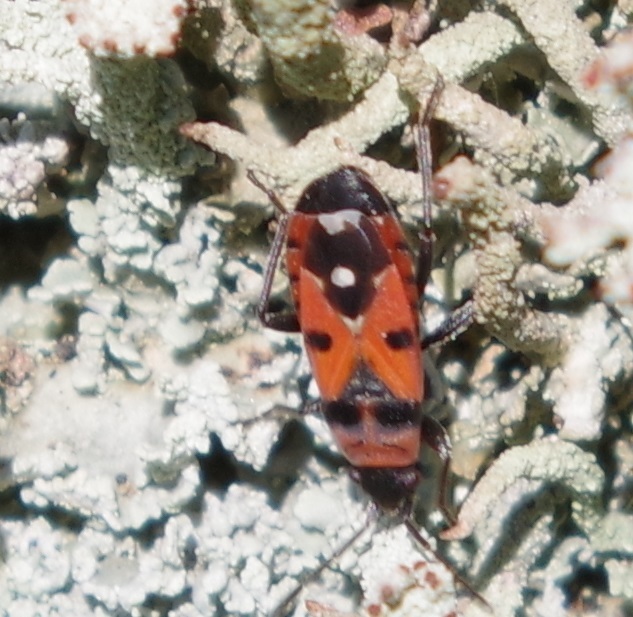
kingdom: Animalia
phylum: Arthropoda
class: Insecta
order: Hemiptera
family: Lygaeidae
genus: Horvathiolus
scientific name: Horvathiolus superbus
